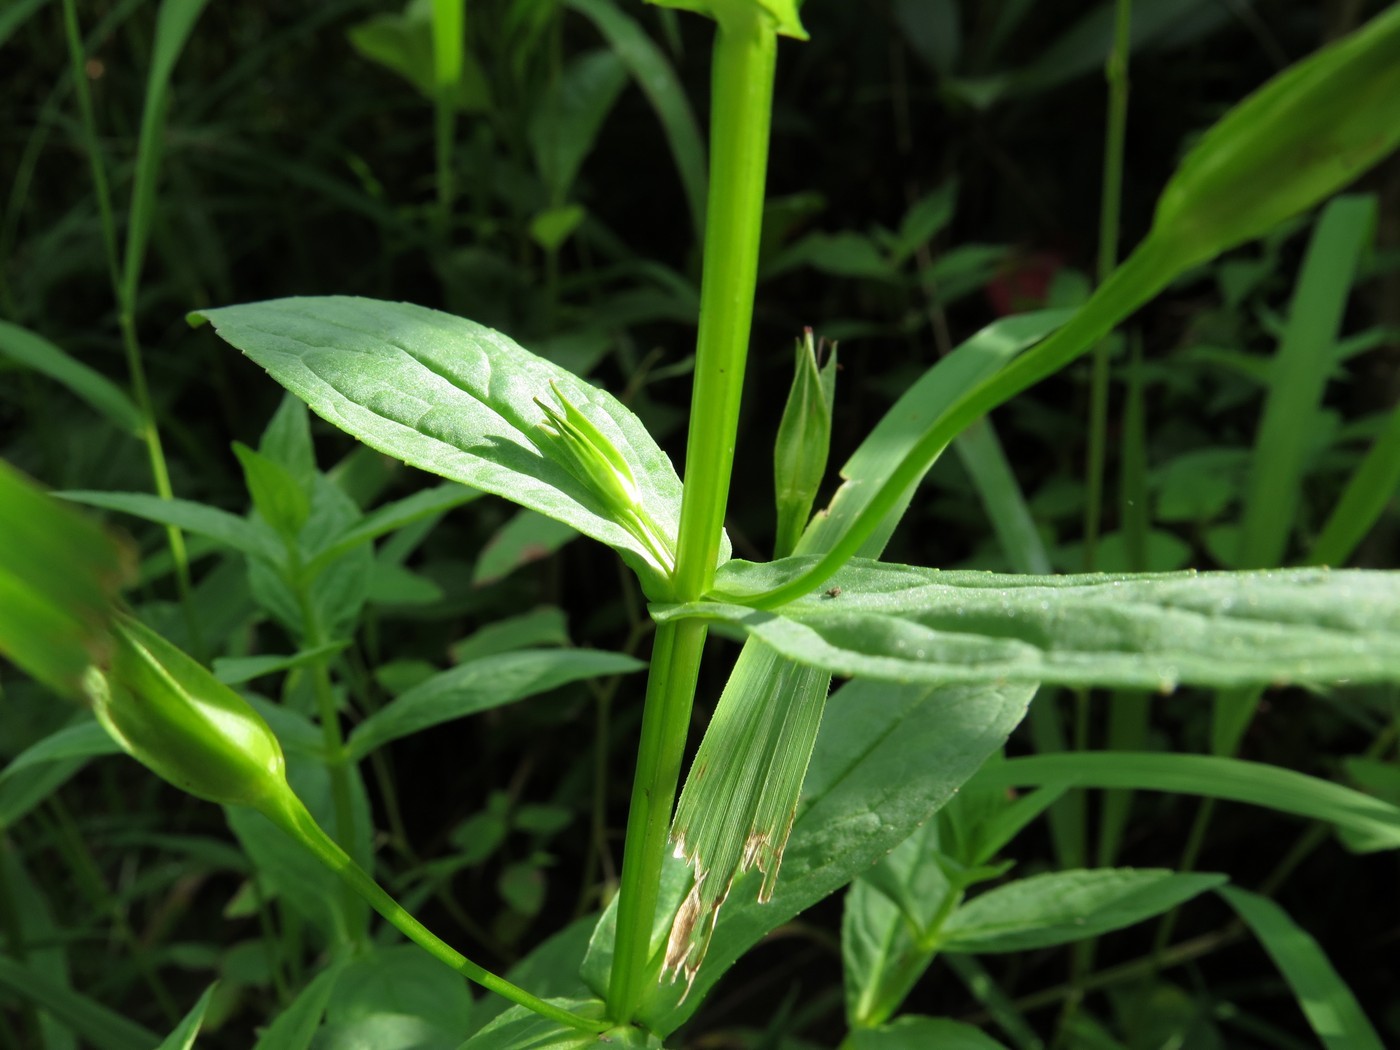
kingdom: Plantae
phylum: Tracheophyta
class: Magnoliopsida
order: Lamiales
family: Phrymaceae
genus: Mimulus
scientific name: Mimulus ringens
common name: Allegheny monkeyflower
